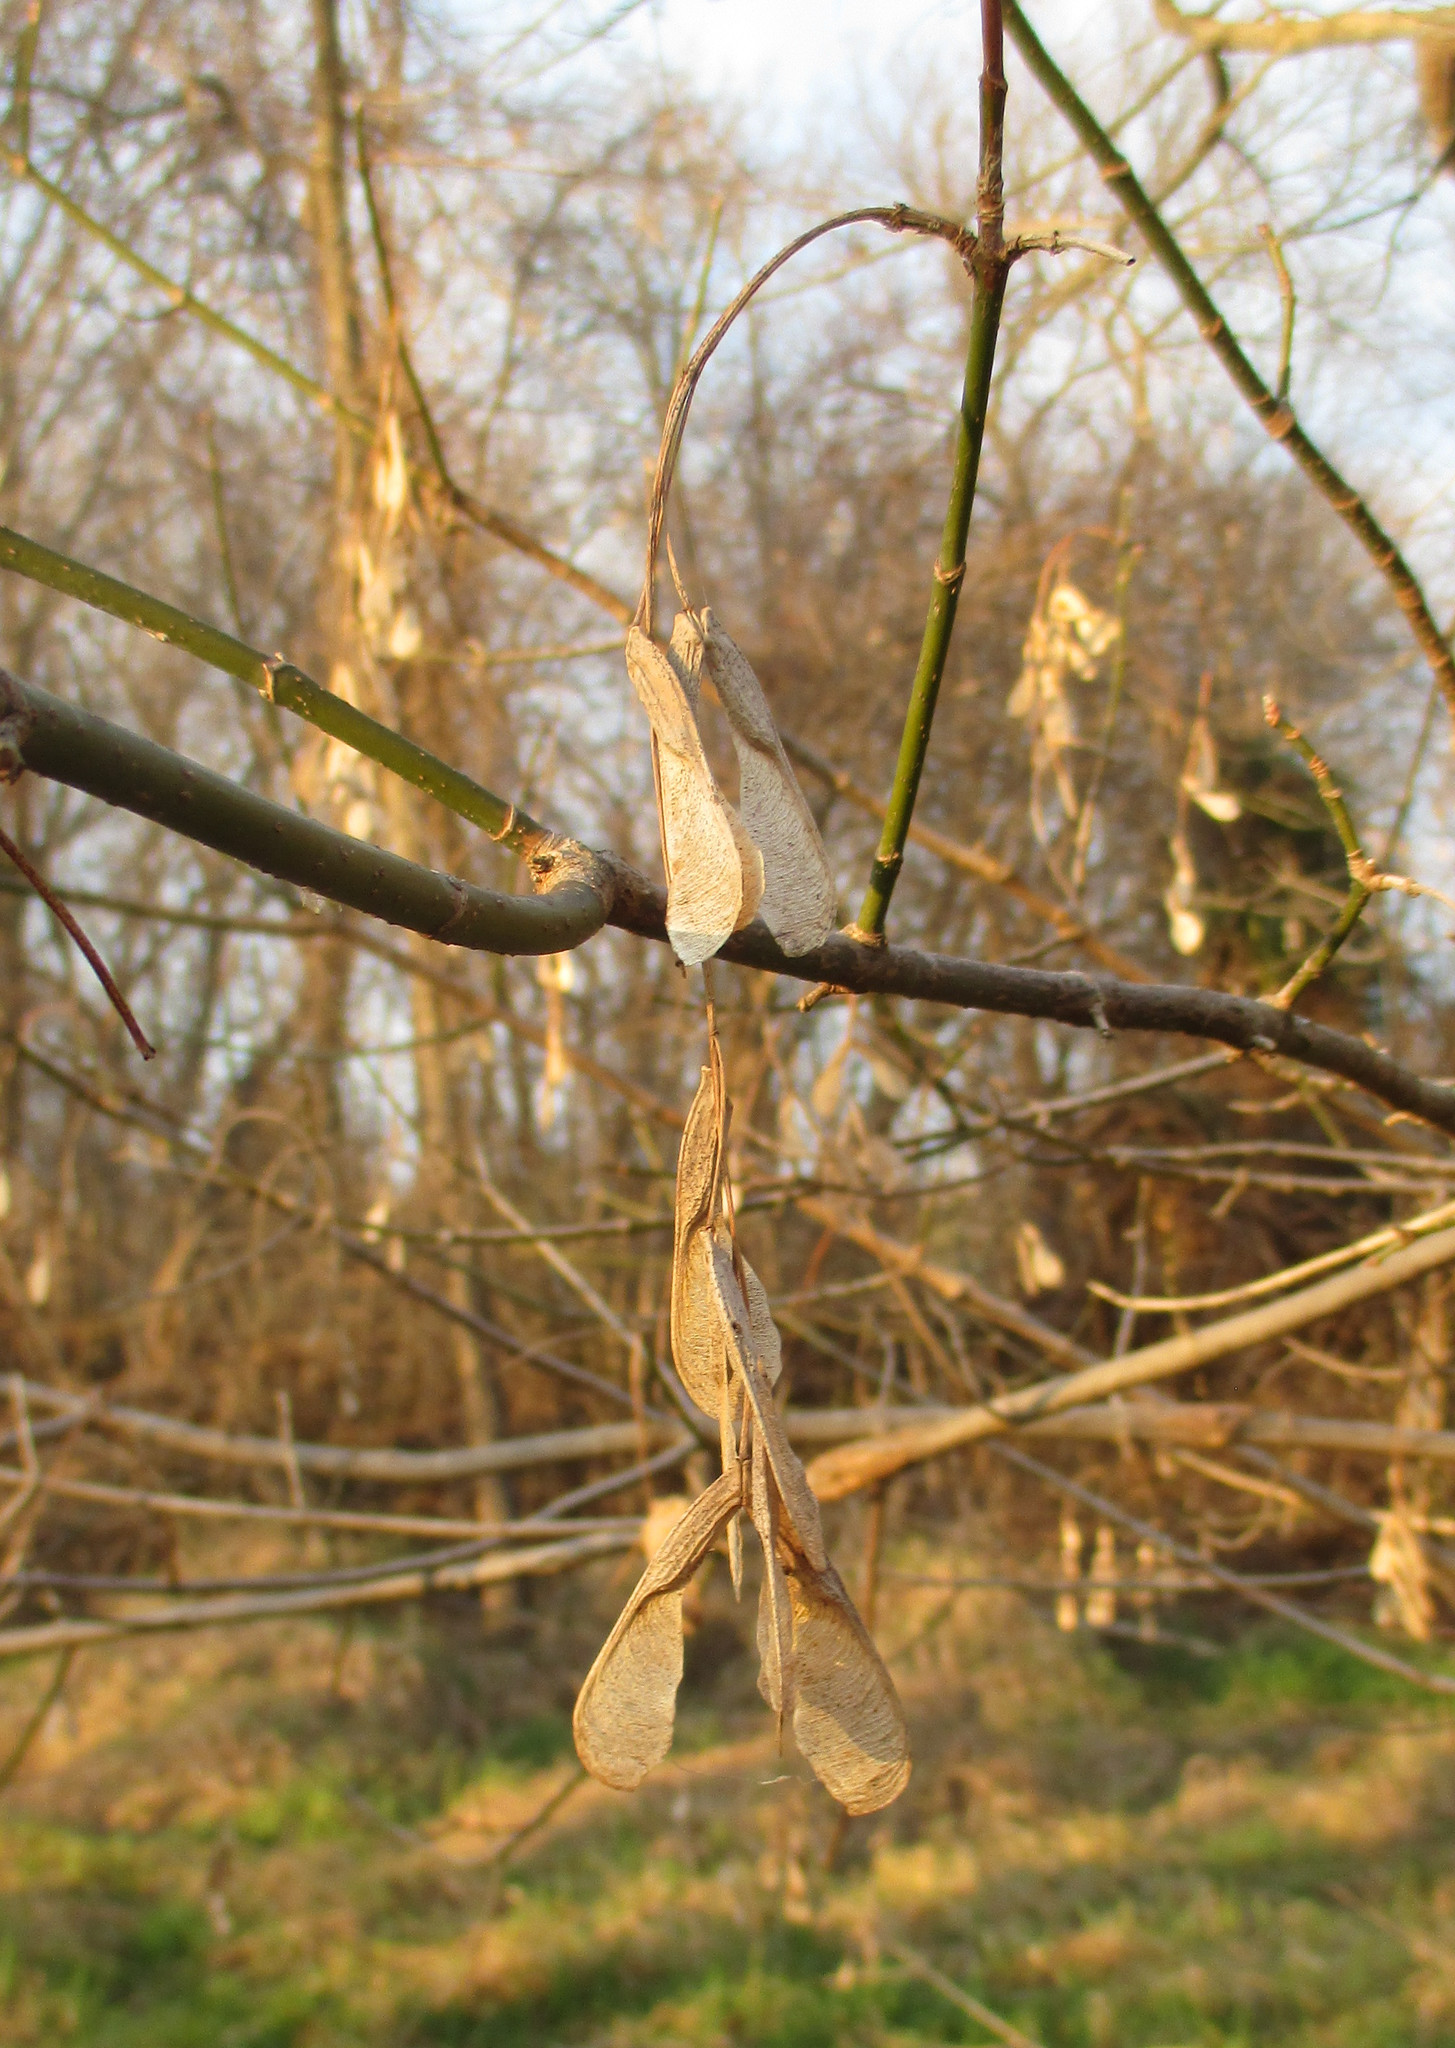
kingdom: Plantae
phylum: Tracheophyta
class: Magnoliopsida
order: Sapindales
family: Sapindaceae
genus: Acer
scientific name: Acer negundo
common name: Ashleaf maple
